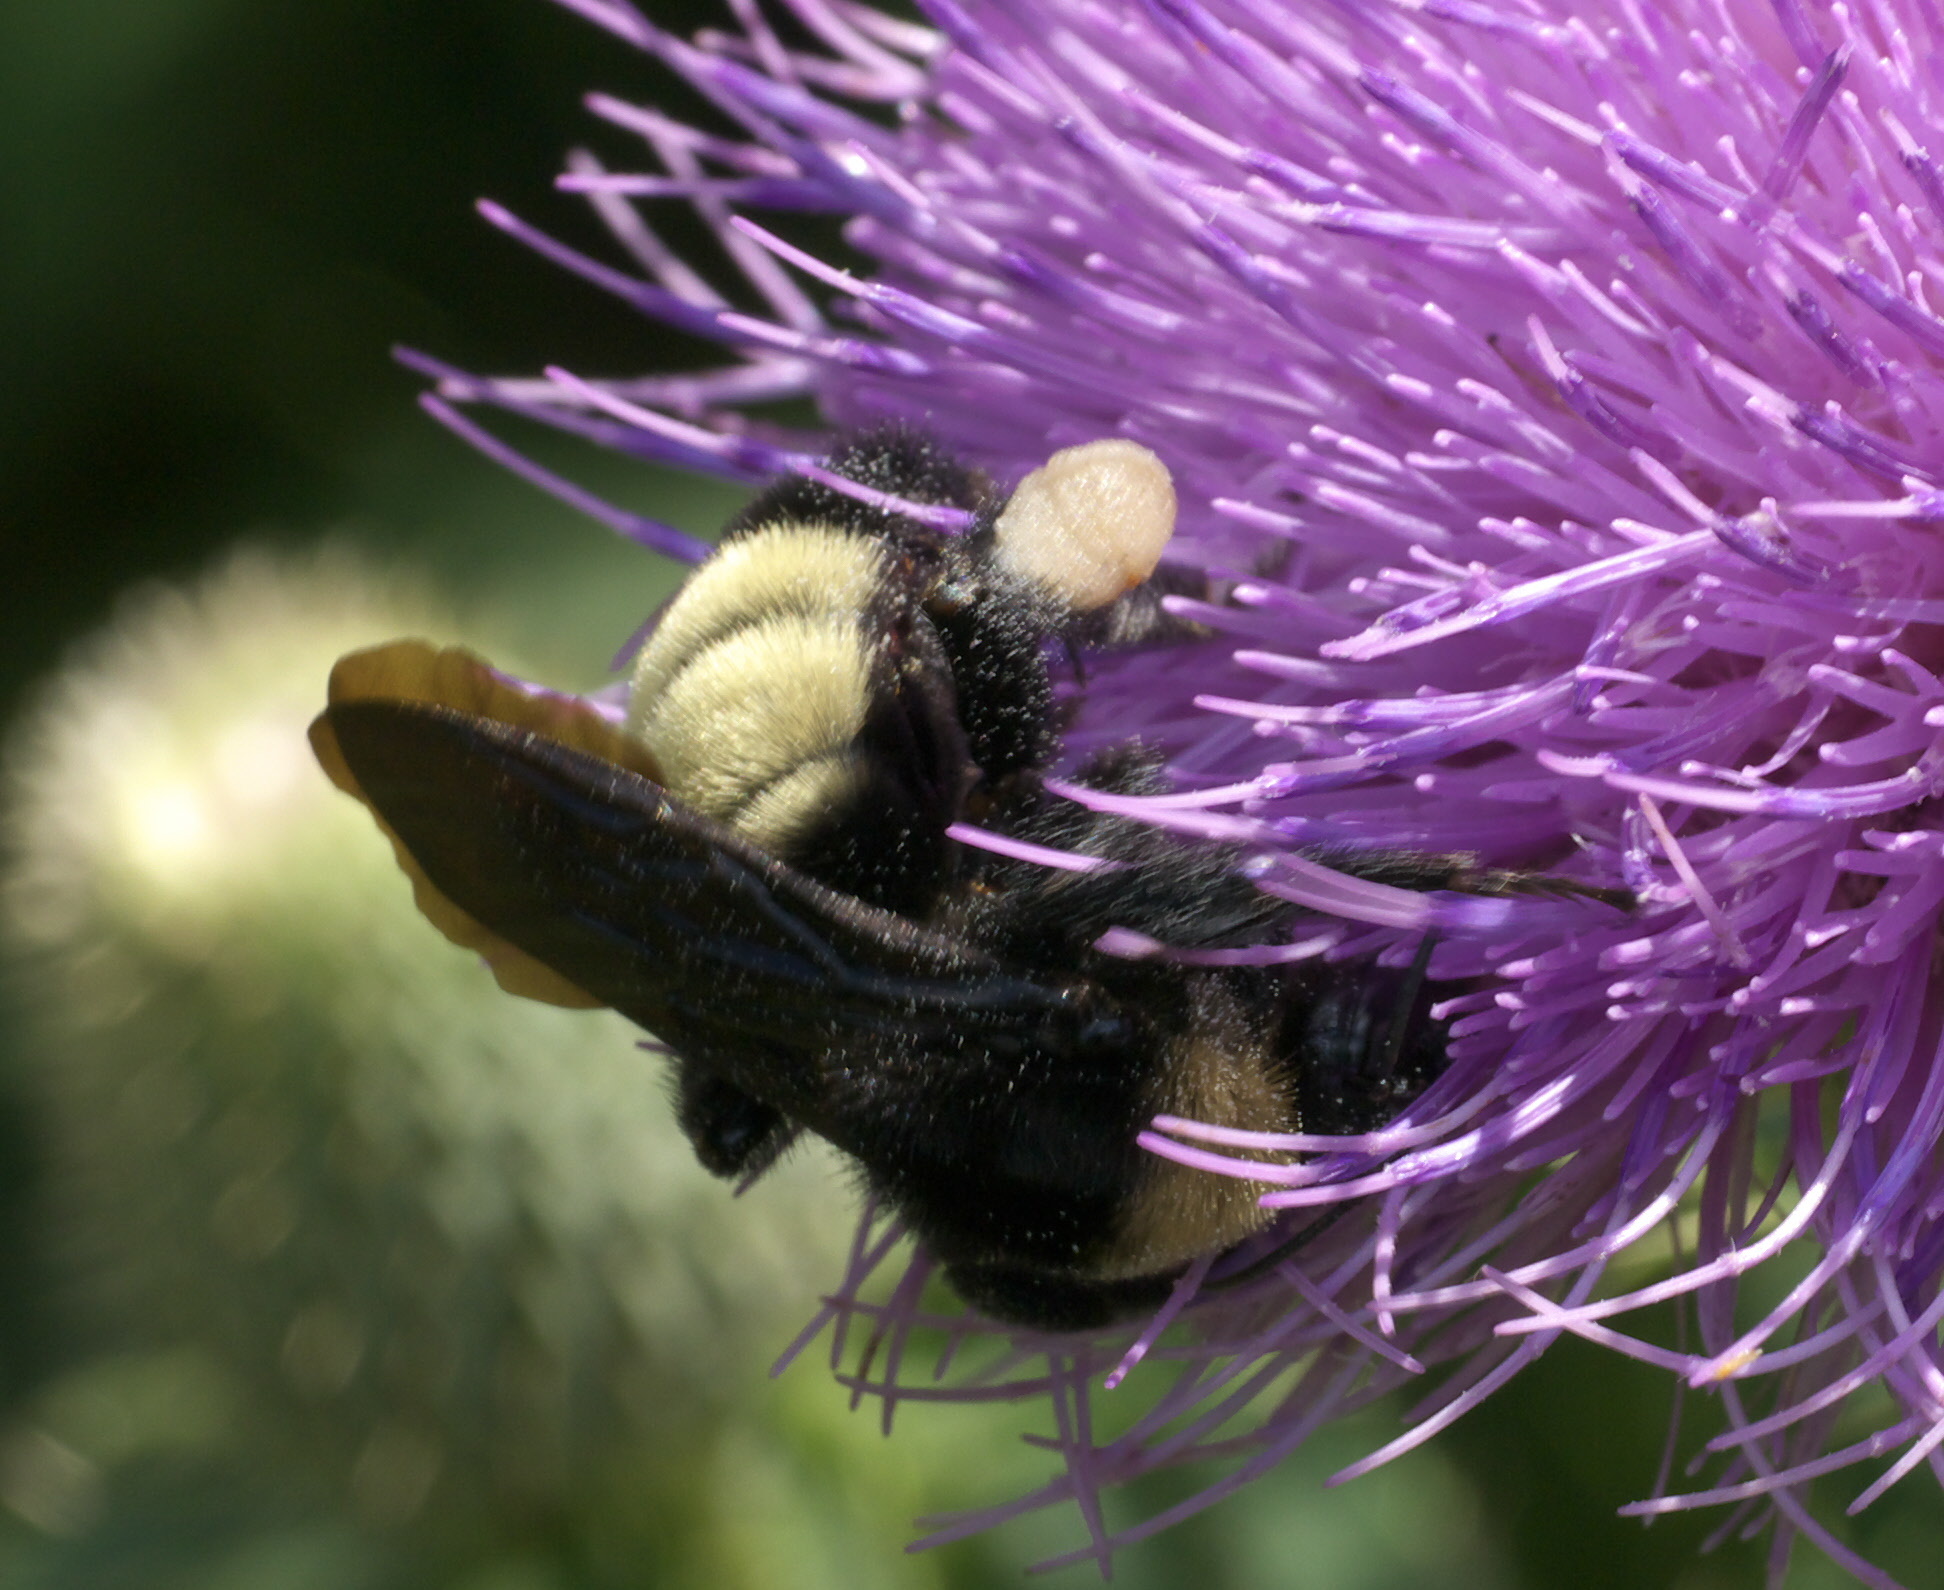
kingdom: Animalia
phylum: Arthropoda
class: Insecta
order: Hymenoptera
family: Apidae
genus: Bombus
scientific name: Bombus pensylvanicus
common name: Bumble bee
